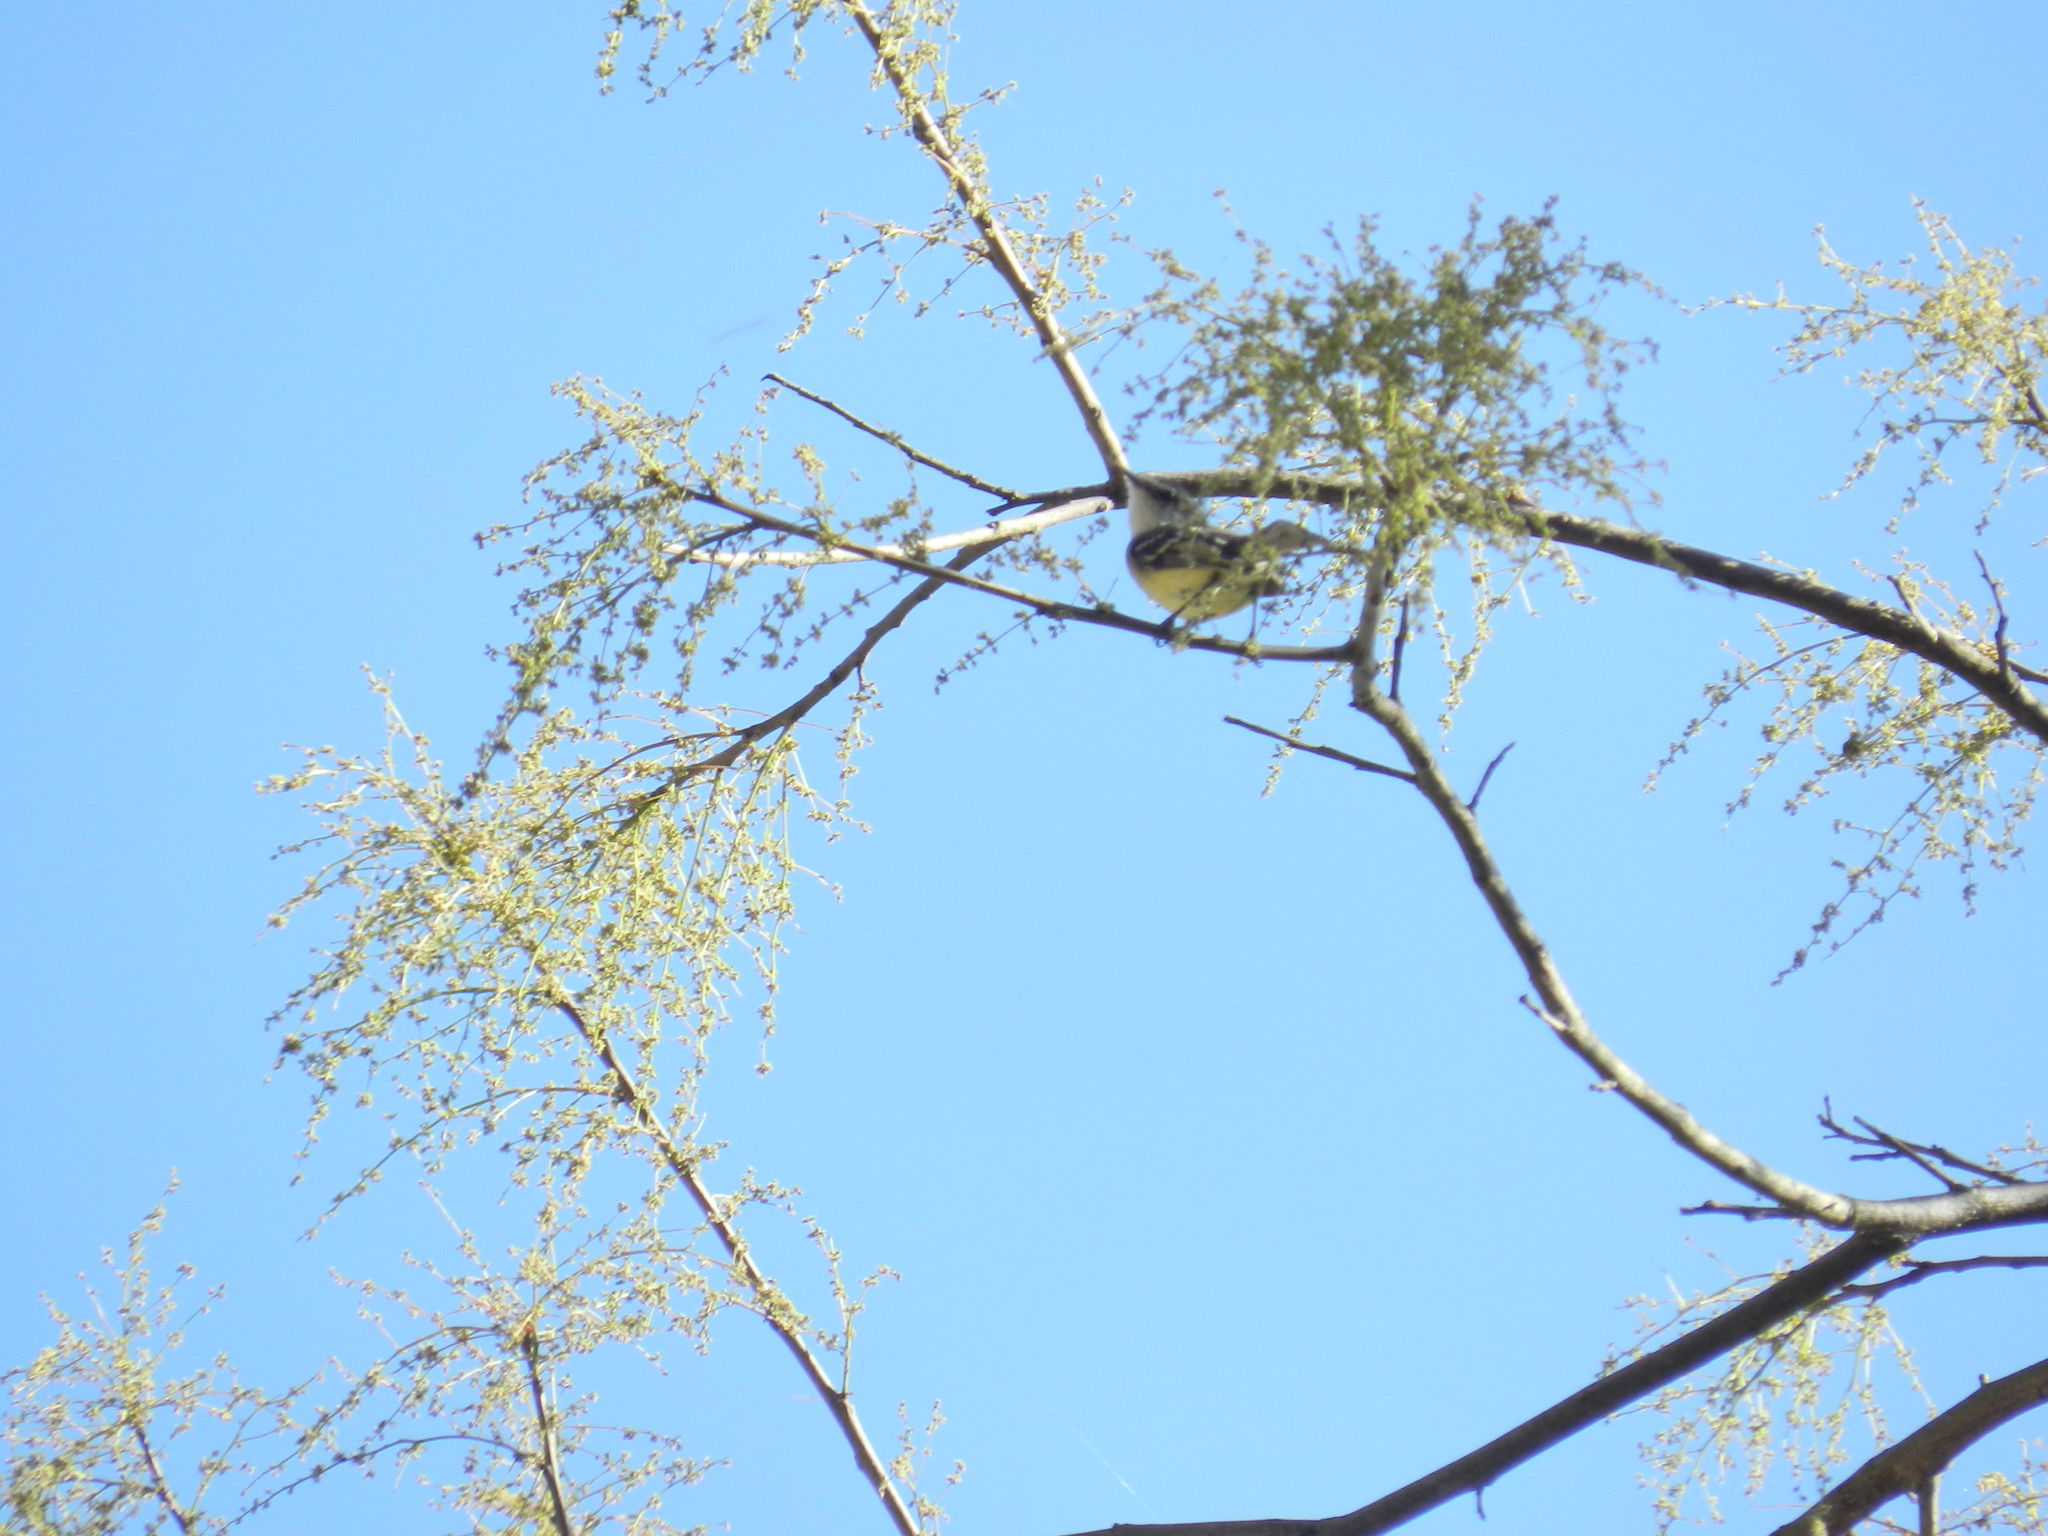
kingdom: Animalia
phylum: Chordata
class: Aves
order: Passeriformes
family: Tyrannidae
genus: Mecocerculus
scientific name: Mecocerculus leucophrys
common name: White-throated tyrannulet
